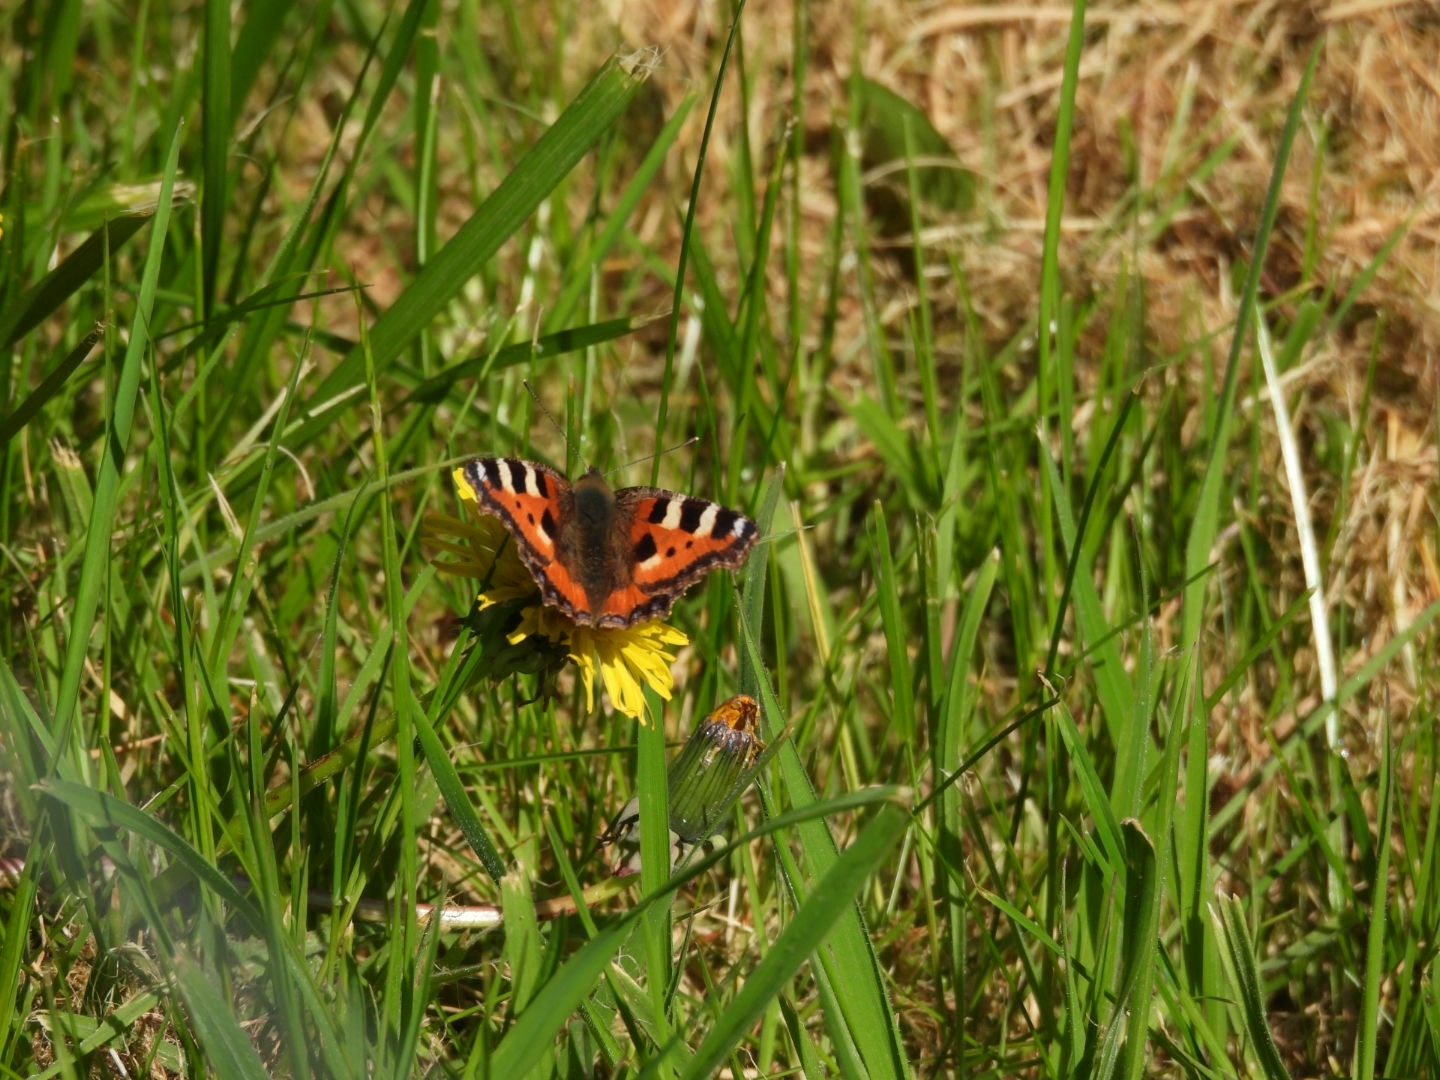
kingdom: Animalia
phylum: Arthropoda
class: Insecta
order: Lepidoptera
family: Nymphalidae
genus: Aglais
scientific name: Aglais urticae
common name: Small tortoiseshell
